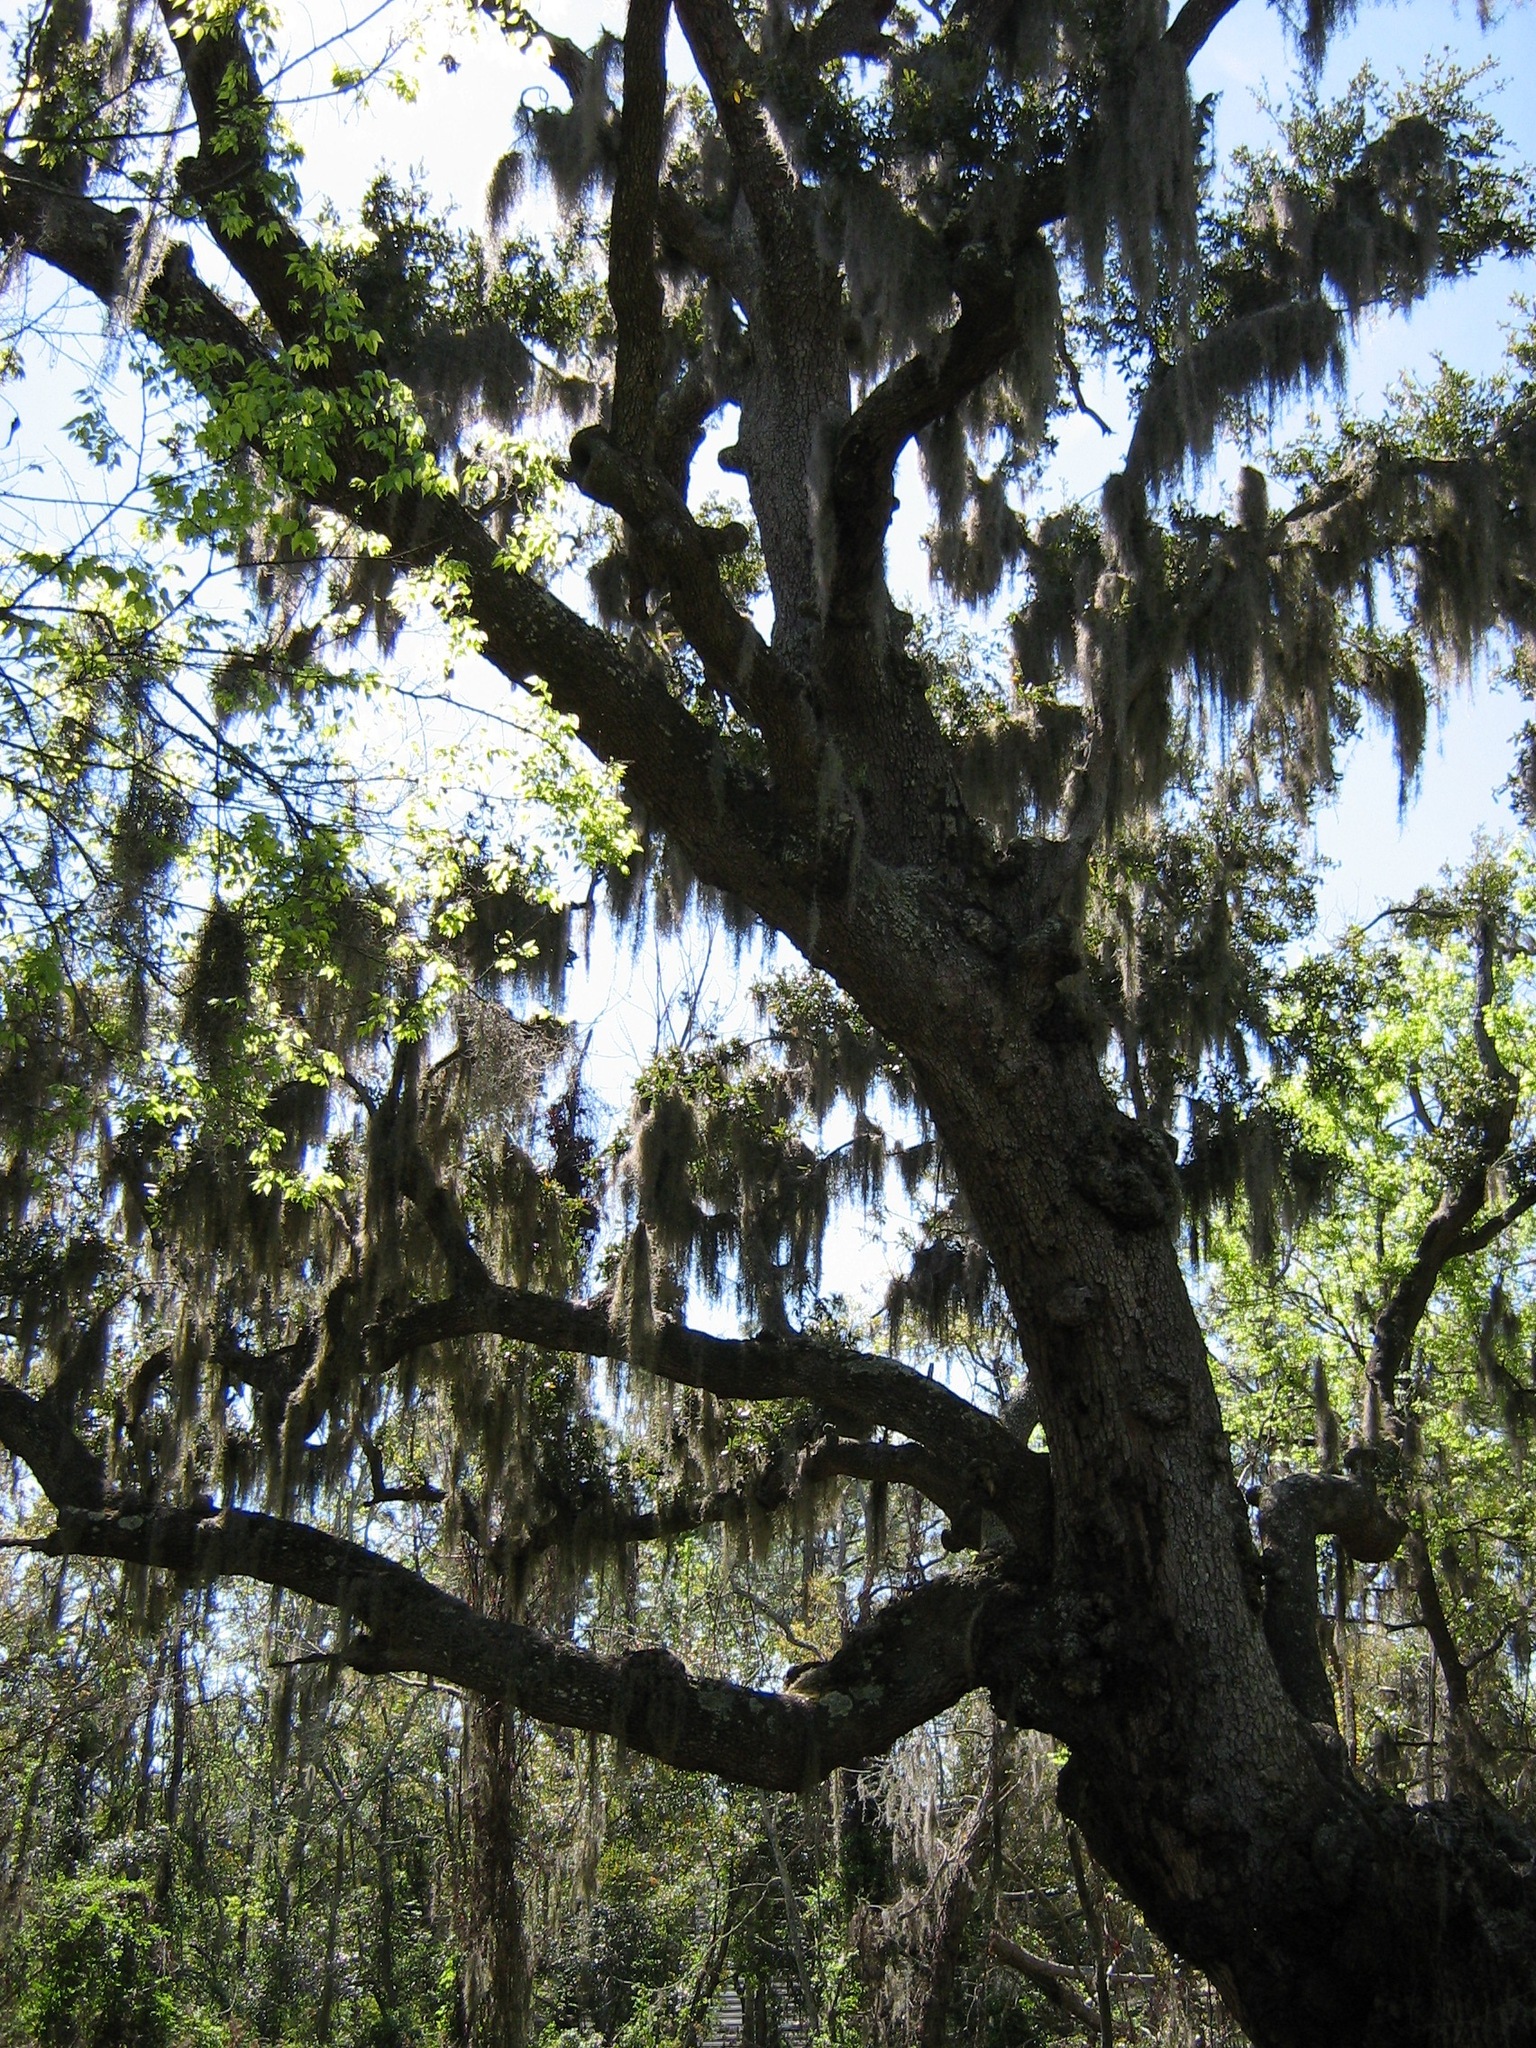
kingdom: Plantae
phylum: Tracheophyta
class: Magnoliopsida
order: Fagales
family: Fagaceae
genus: Quercus
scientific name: Quercus virginiana
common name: Southern live oak
